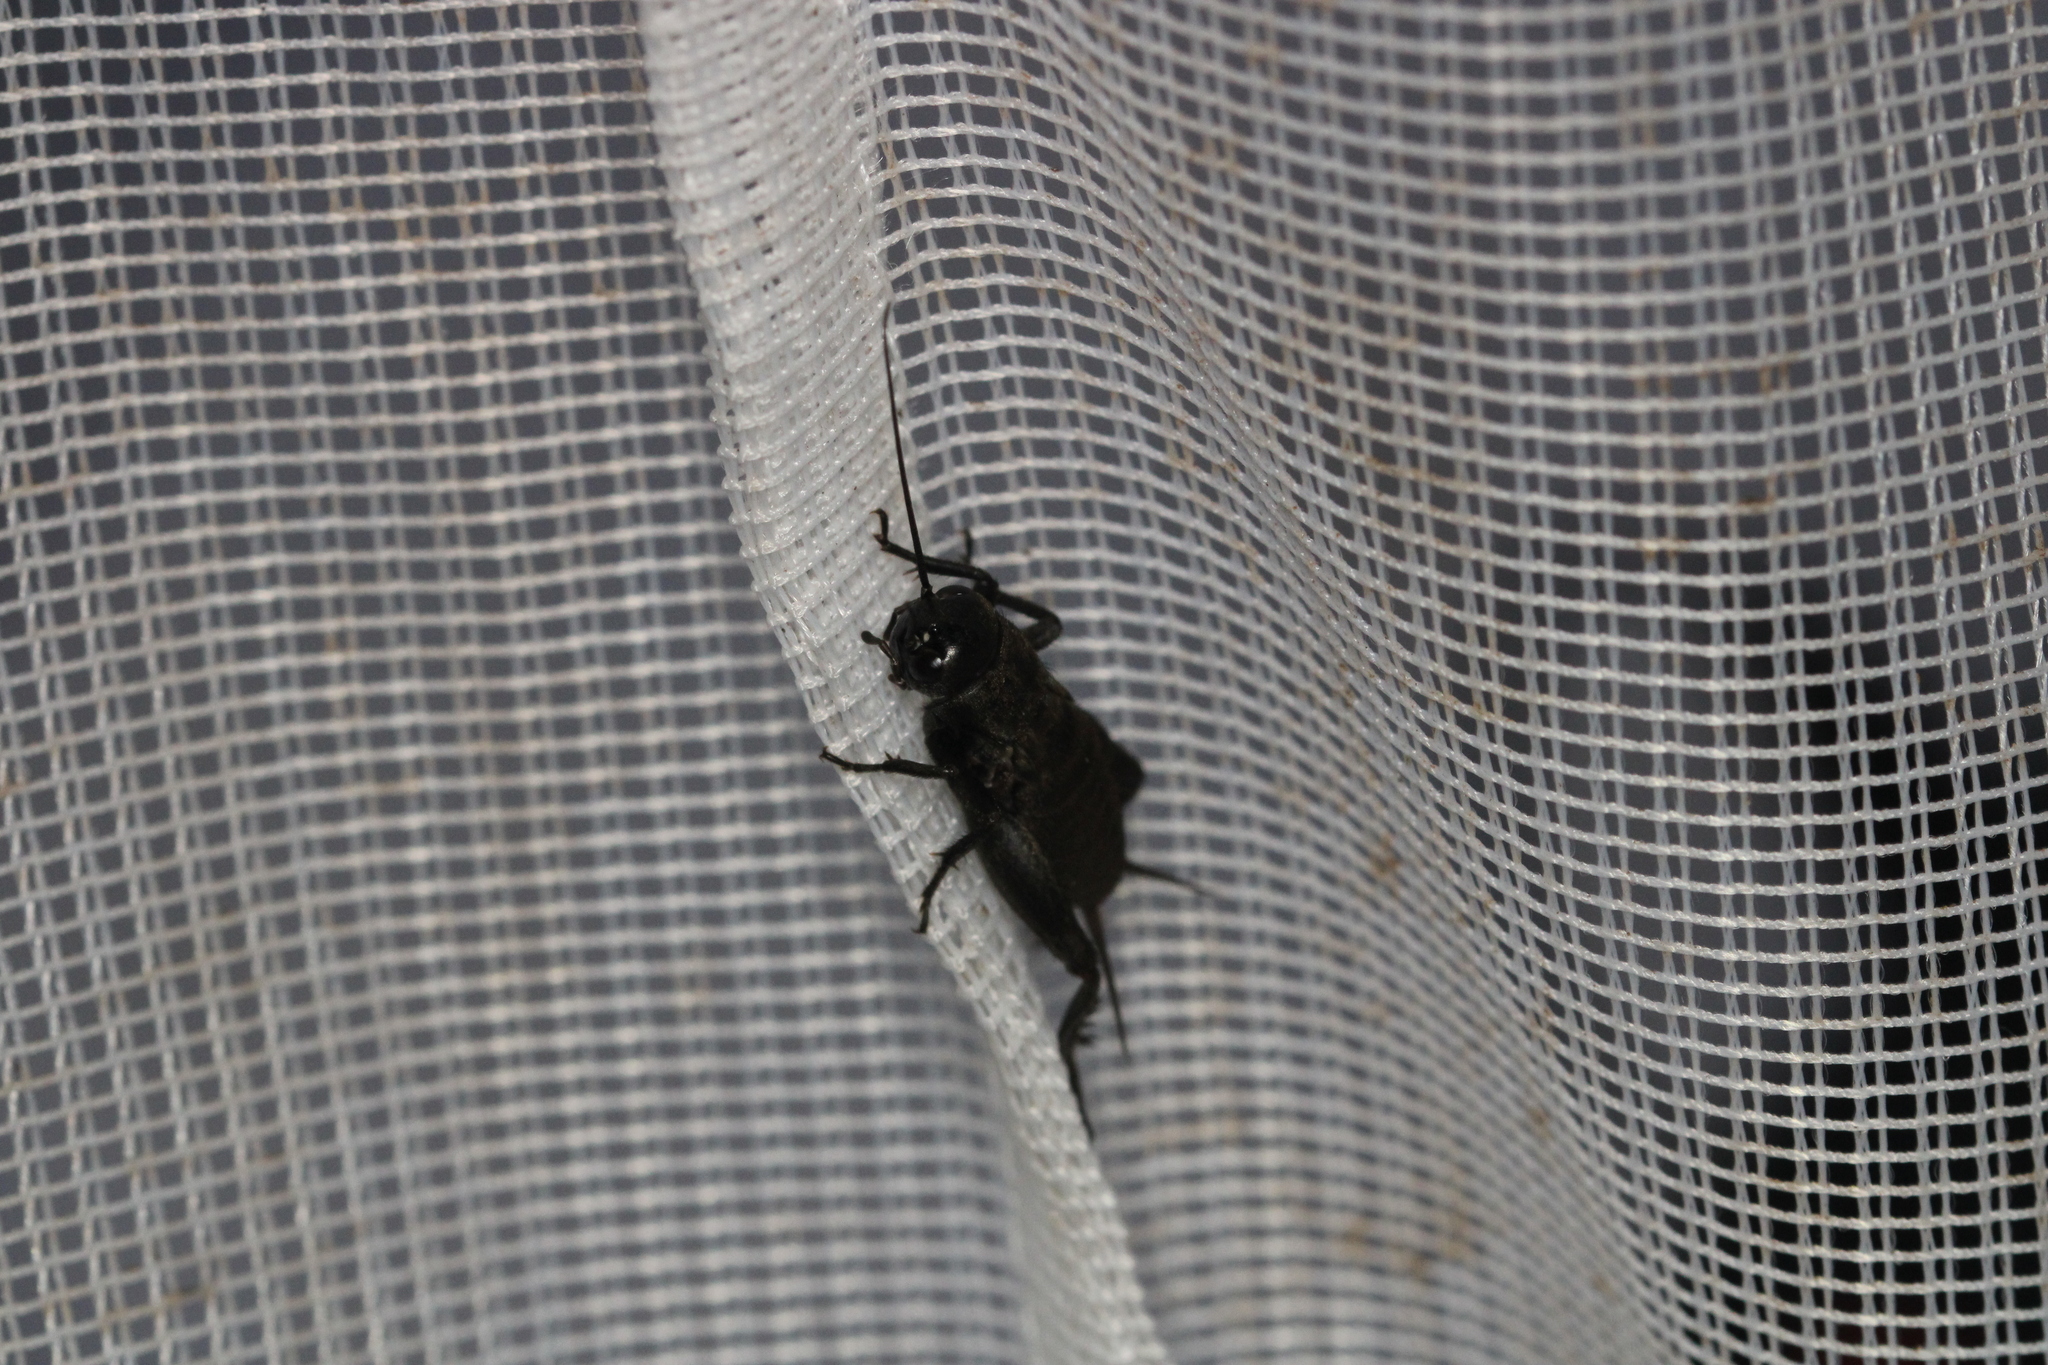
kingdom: Animalia
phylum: Arthropoda
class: Insecta
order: Orthoptera
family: Gryllidae
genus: Melanogryllus
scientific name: Melanogryllus desertus
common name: Desert cricket
